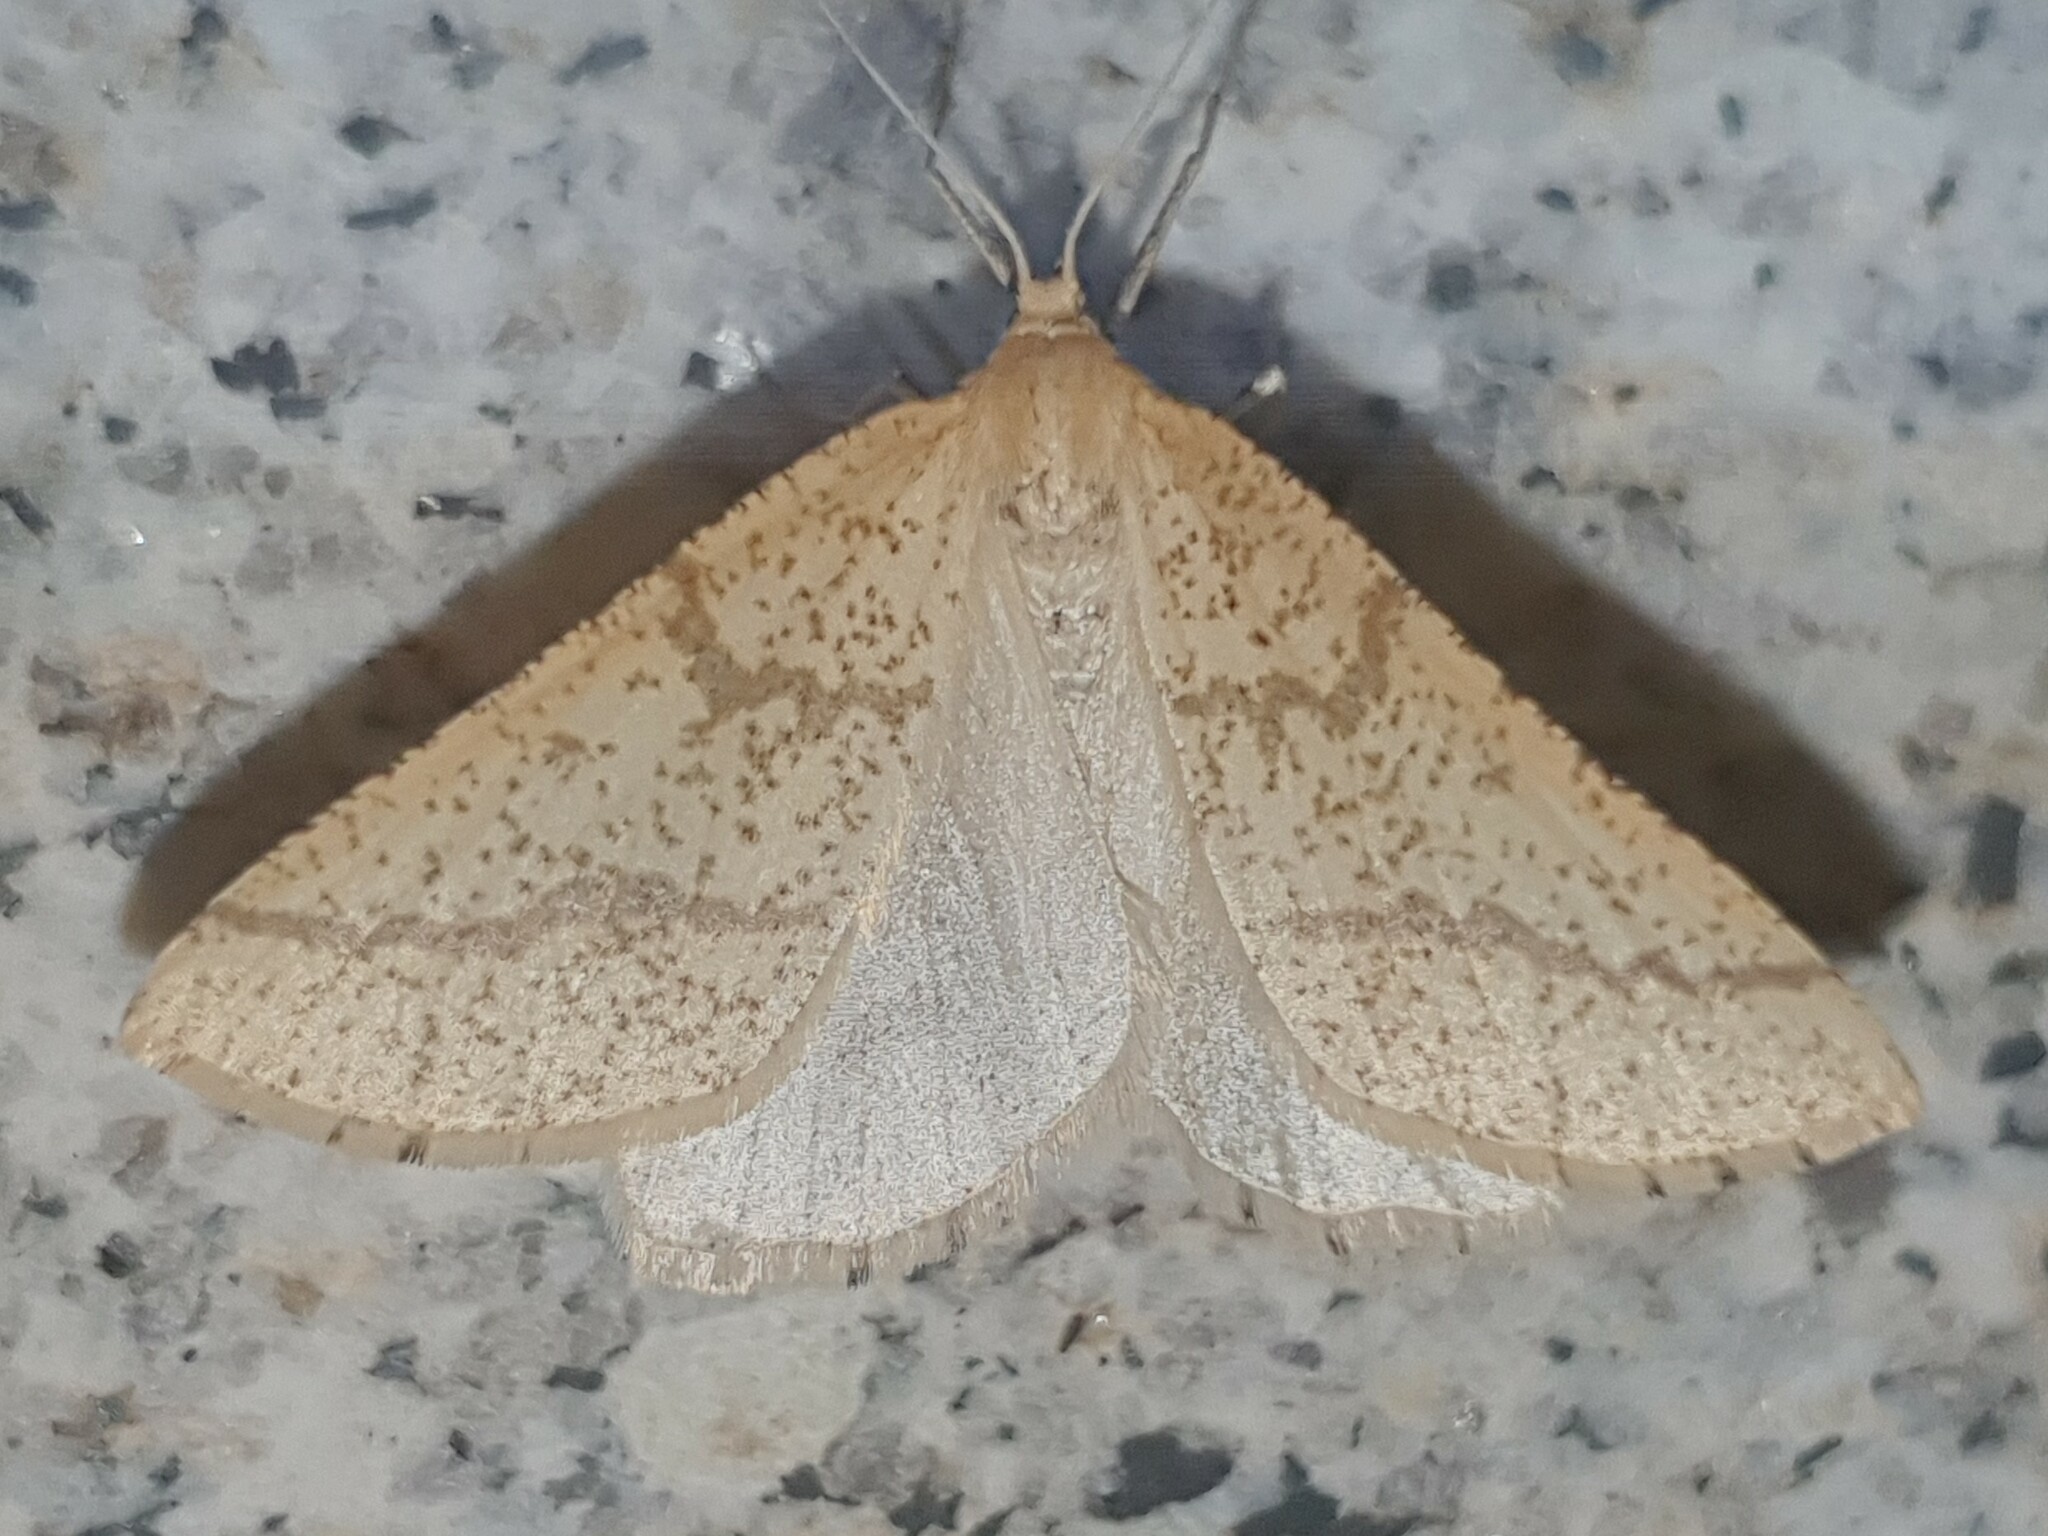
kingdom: Animalia
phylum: Arthropoda
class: Insecta
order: Lepidoptera
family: Geometridae
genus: Aspitates
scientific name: Aspitates ochrearia
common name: Yellow belle
